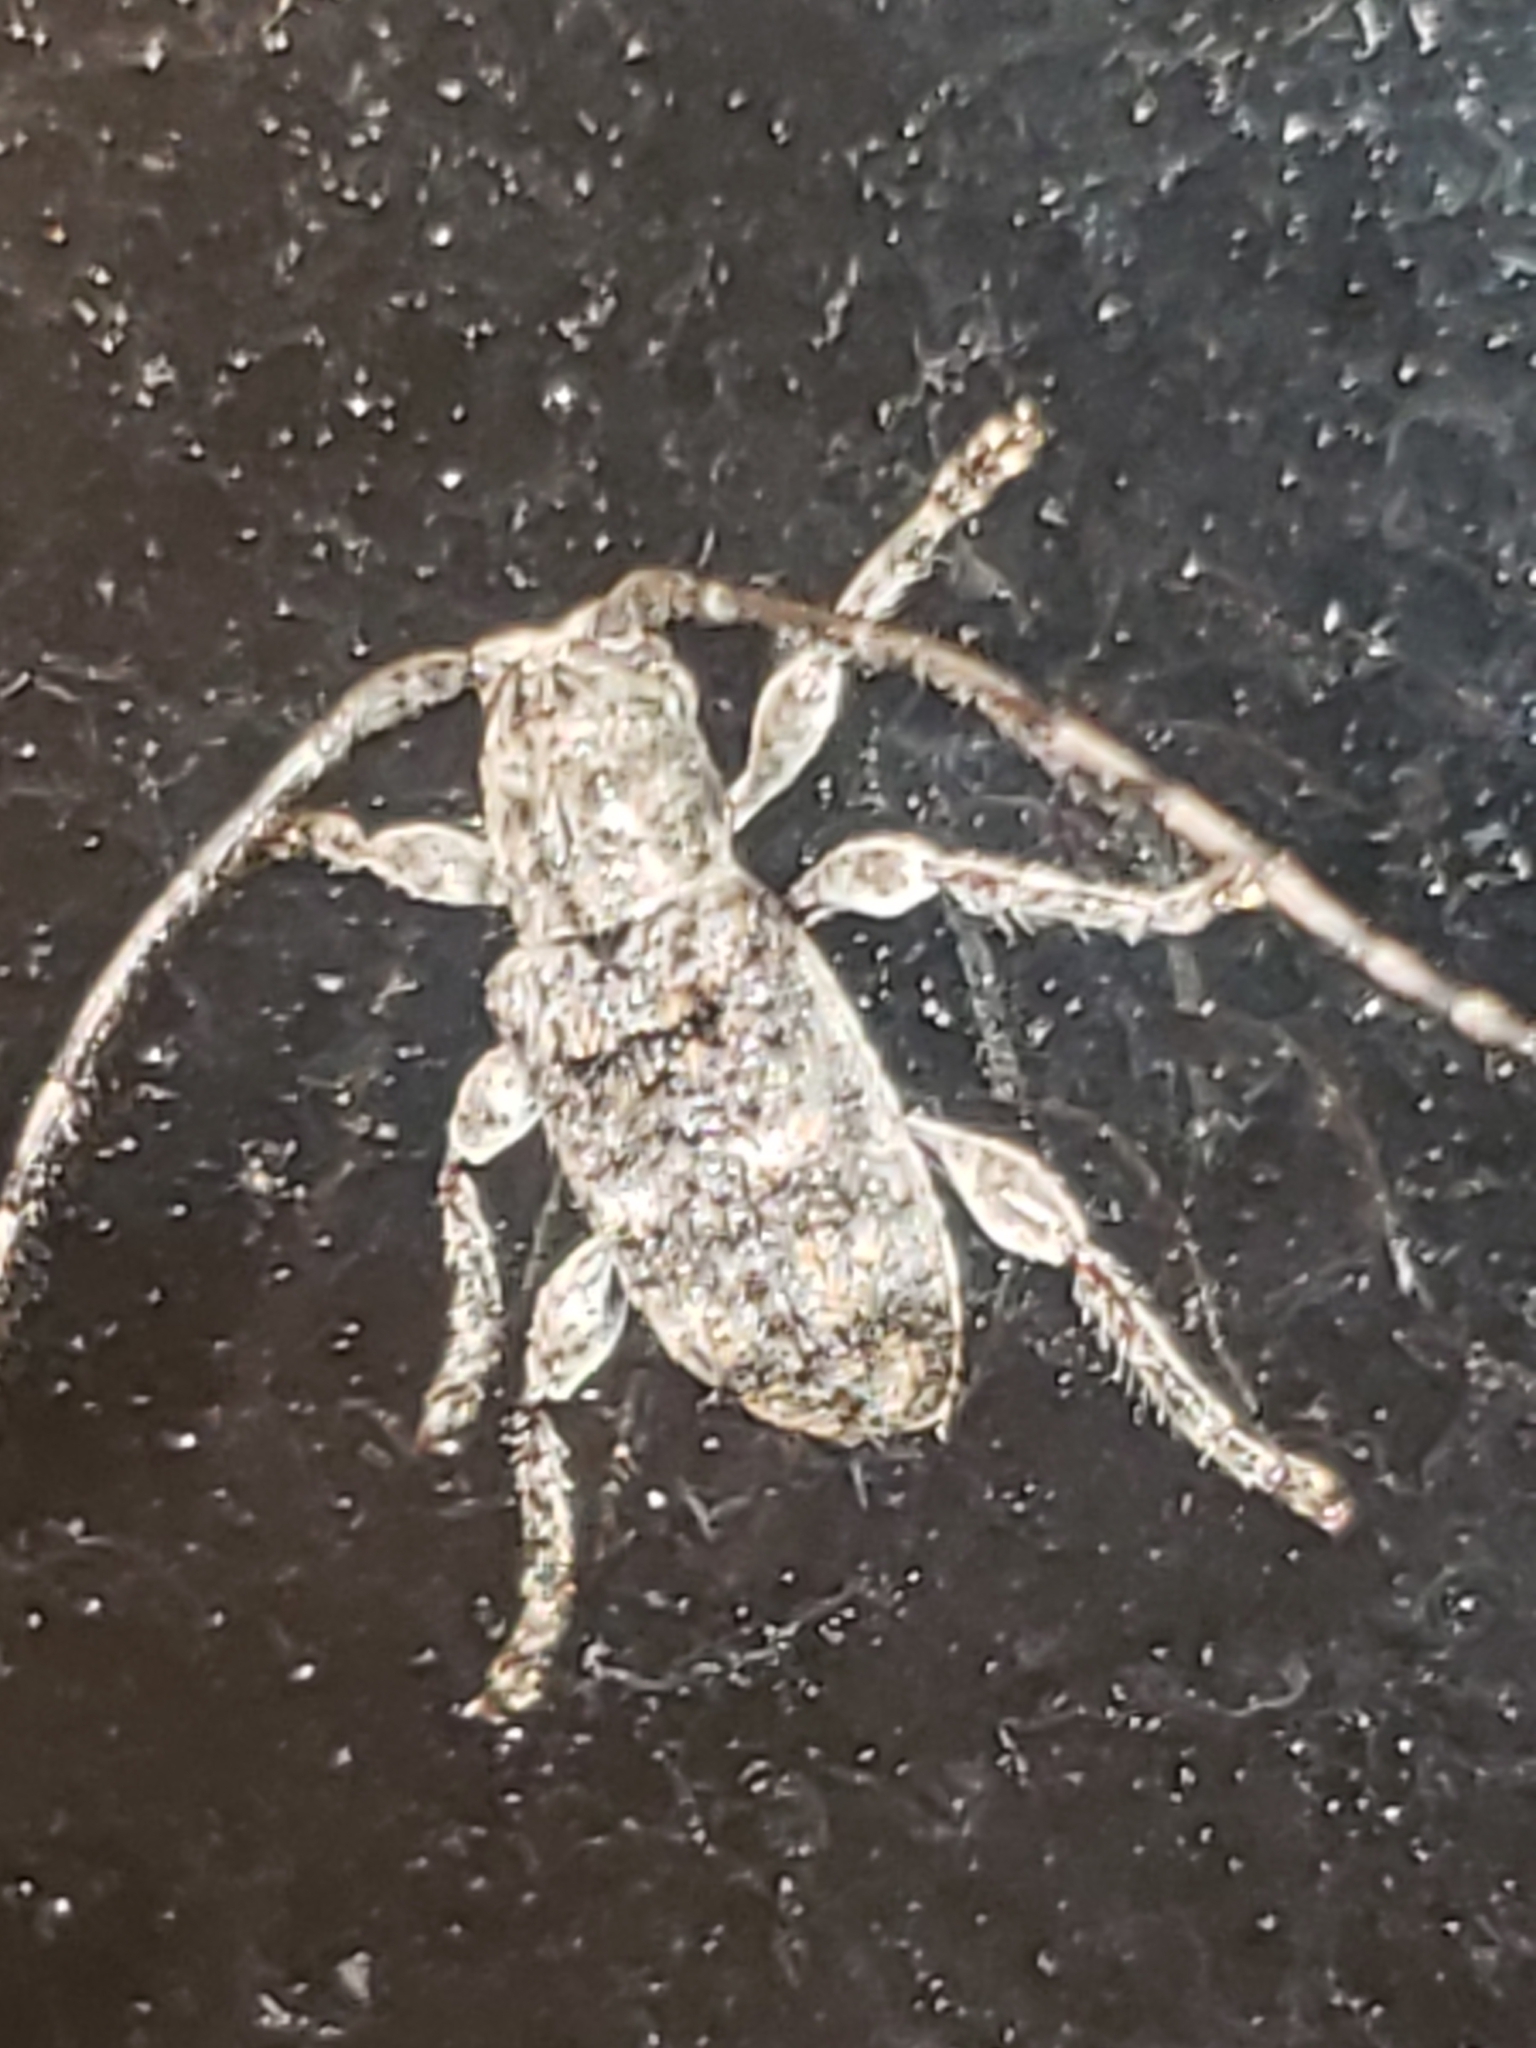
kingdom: Animalia
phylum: Arthropoda
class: Insecta
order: Coleoptera
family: Cerambycidae
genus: Ecyrus
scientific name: Ecyrus dasycerus
